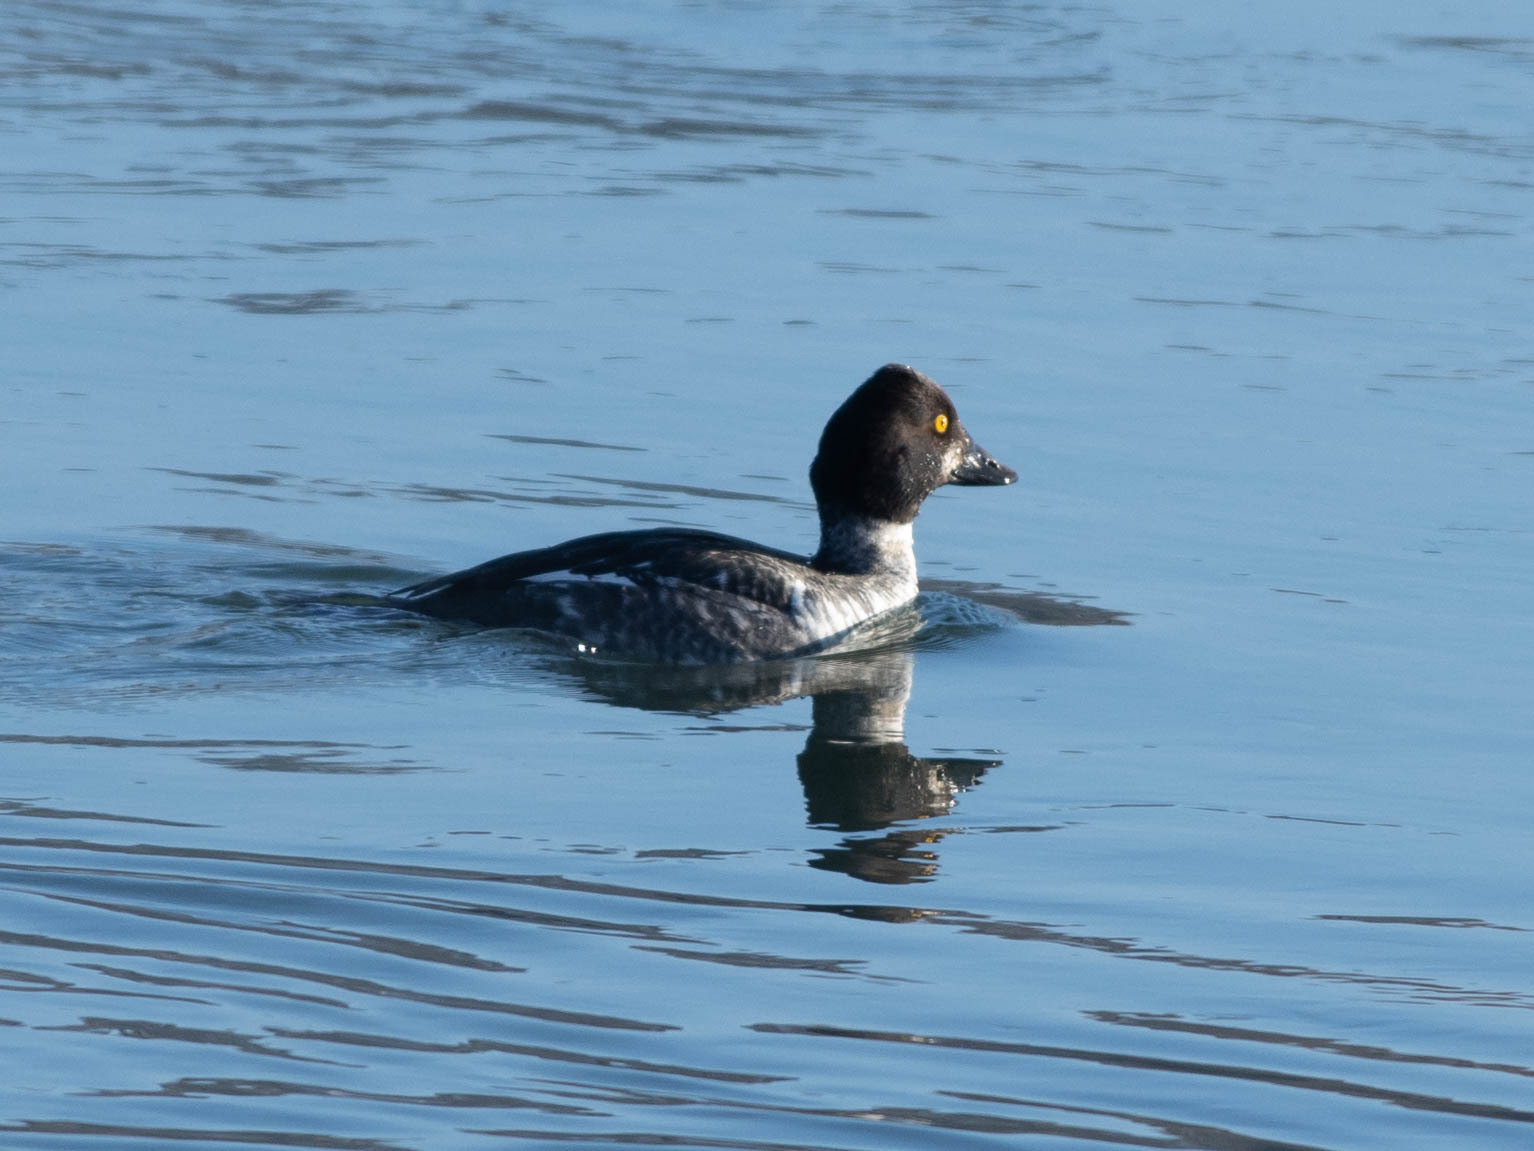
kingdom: Animalia
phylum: Chordata
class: Aves
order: Anseriformes
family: Anatidae
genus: Bucephala
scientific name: Bucephala clangula
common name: Common goldeneye
